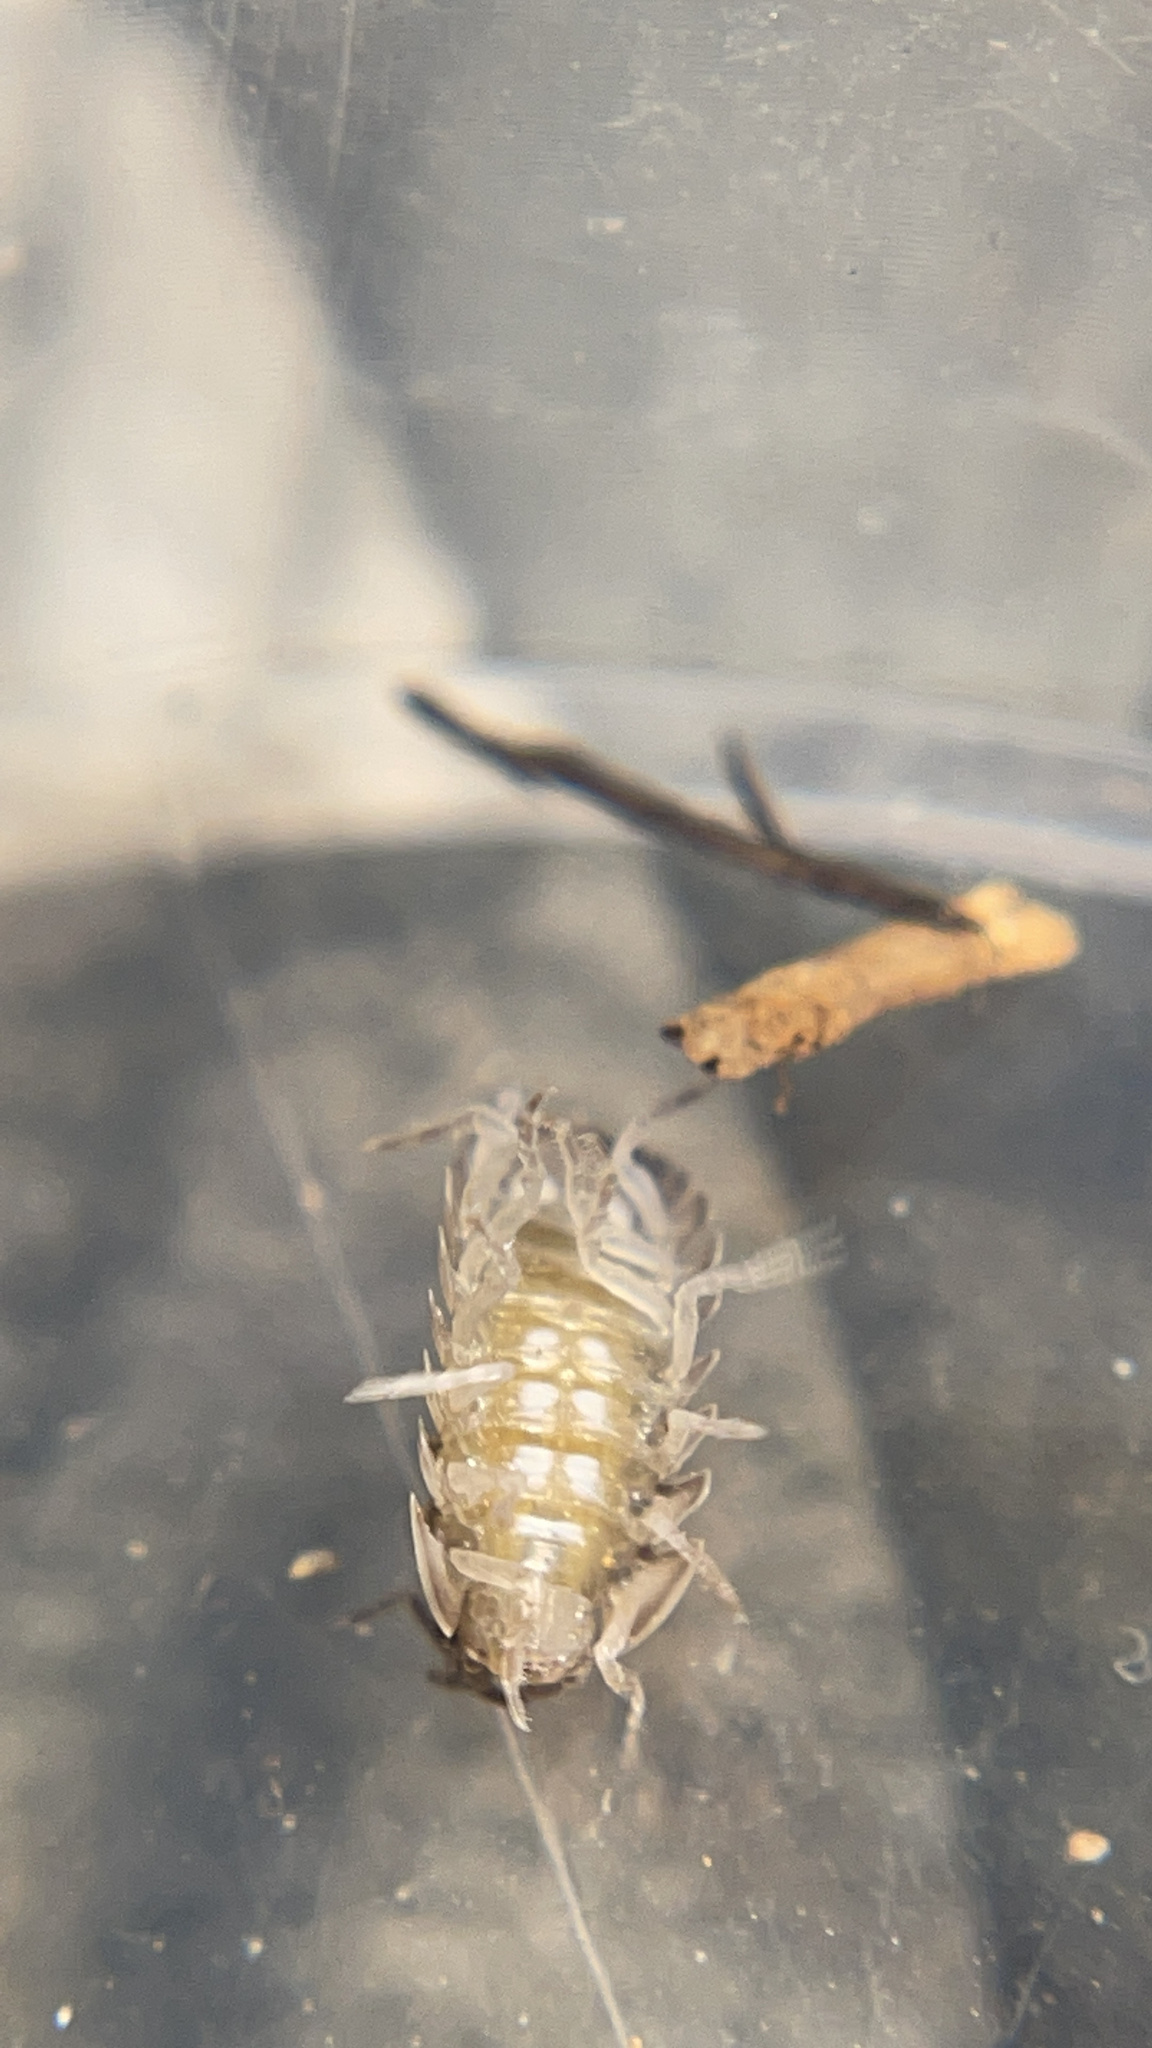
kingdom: Animalia
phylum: Arthropoda
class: Malacostraca
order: Isopoda
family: Armadillidiidae
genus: Armadillidium
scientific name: Armadillidium nasatum
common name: Isopod
